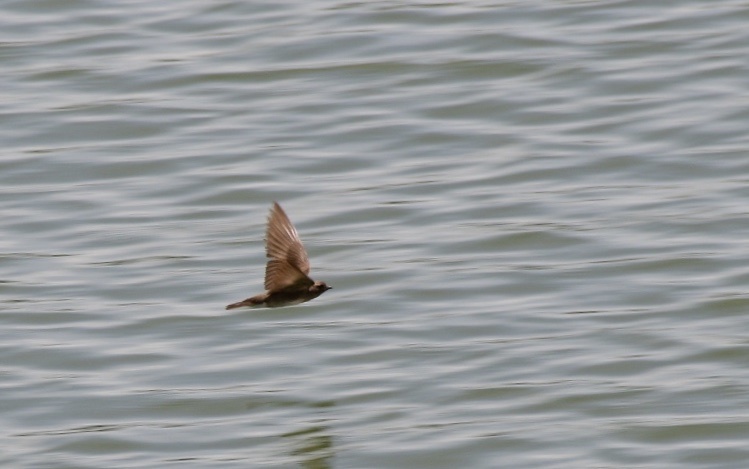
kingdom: Animalia
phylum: Chordata
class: Aves
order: Passeriformes
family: Hirundinidae
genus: Stelgidopteryx
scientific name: Stelgidopteryx serripennis
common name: Northern rough-winged swallow
